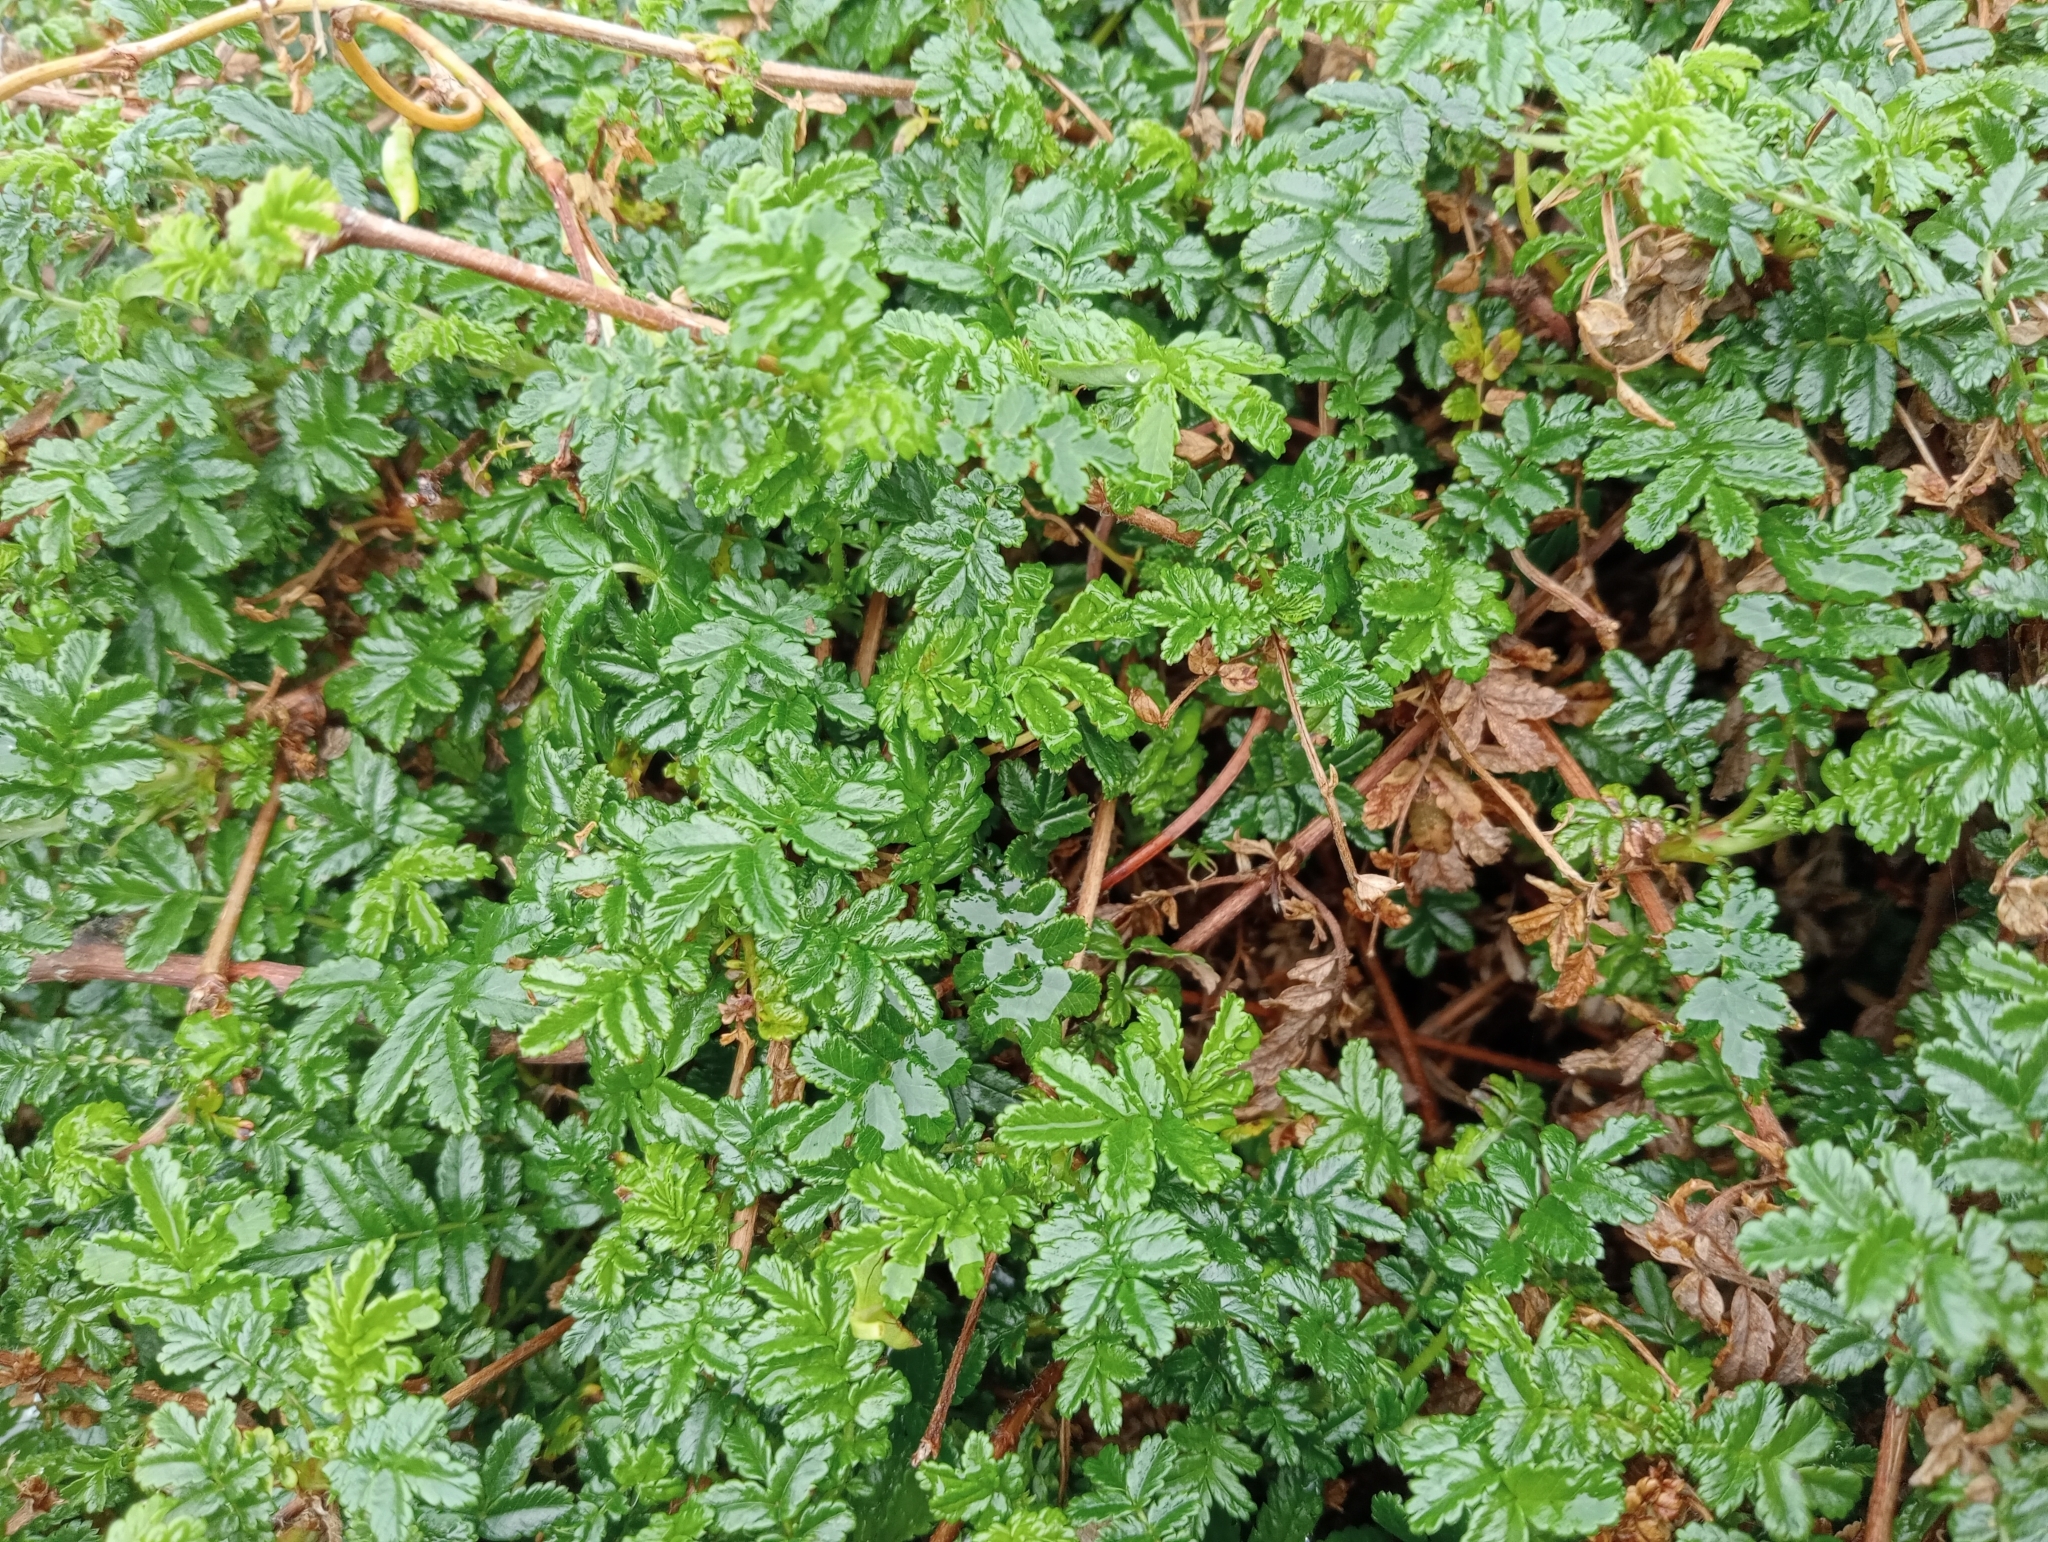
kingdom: Plantae
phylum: Tracheophyta
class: Magnoliopsida
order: Rosales
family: Rosaceae
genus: Acaena
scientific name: Acaena novae-zelandiae
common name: Pirri-pirri-bur
